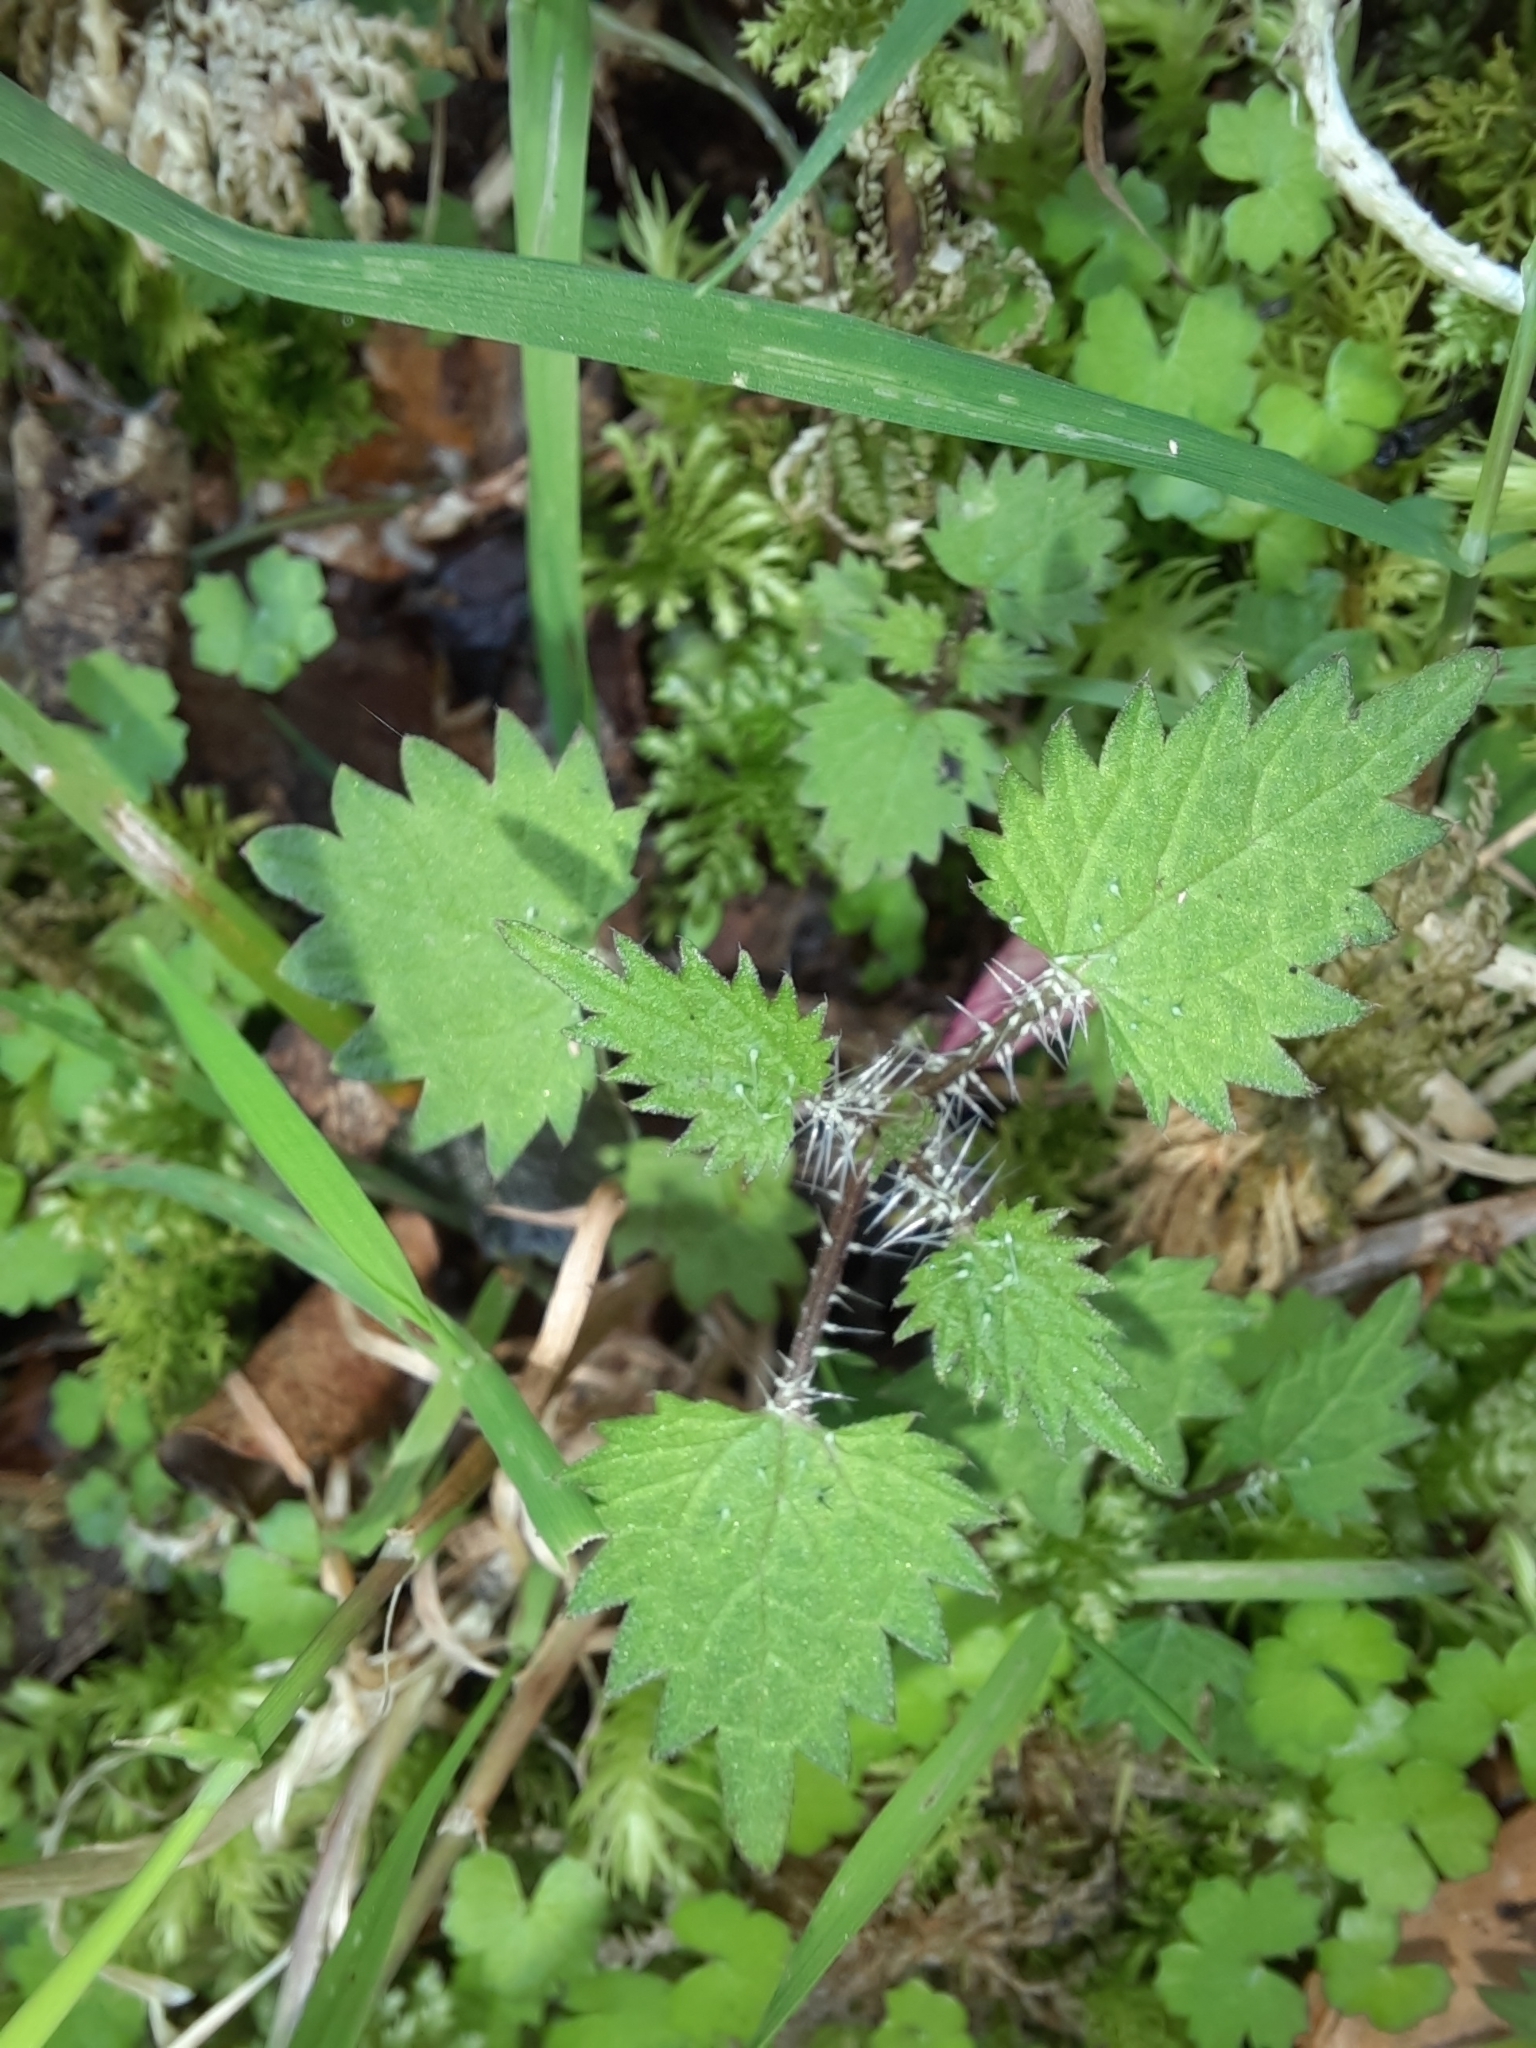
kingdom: Plantae
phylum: Tracheophyta
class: Magnoliopsida
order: Rosales
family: Urticaceae
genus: Urtica
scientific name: Urtica sykesii
